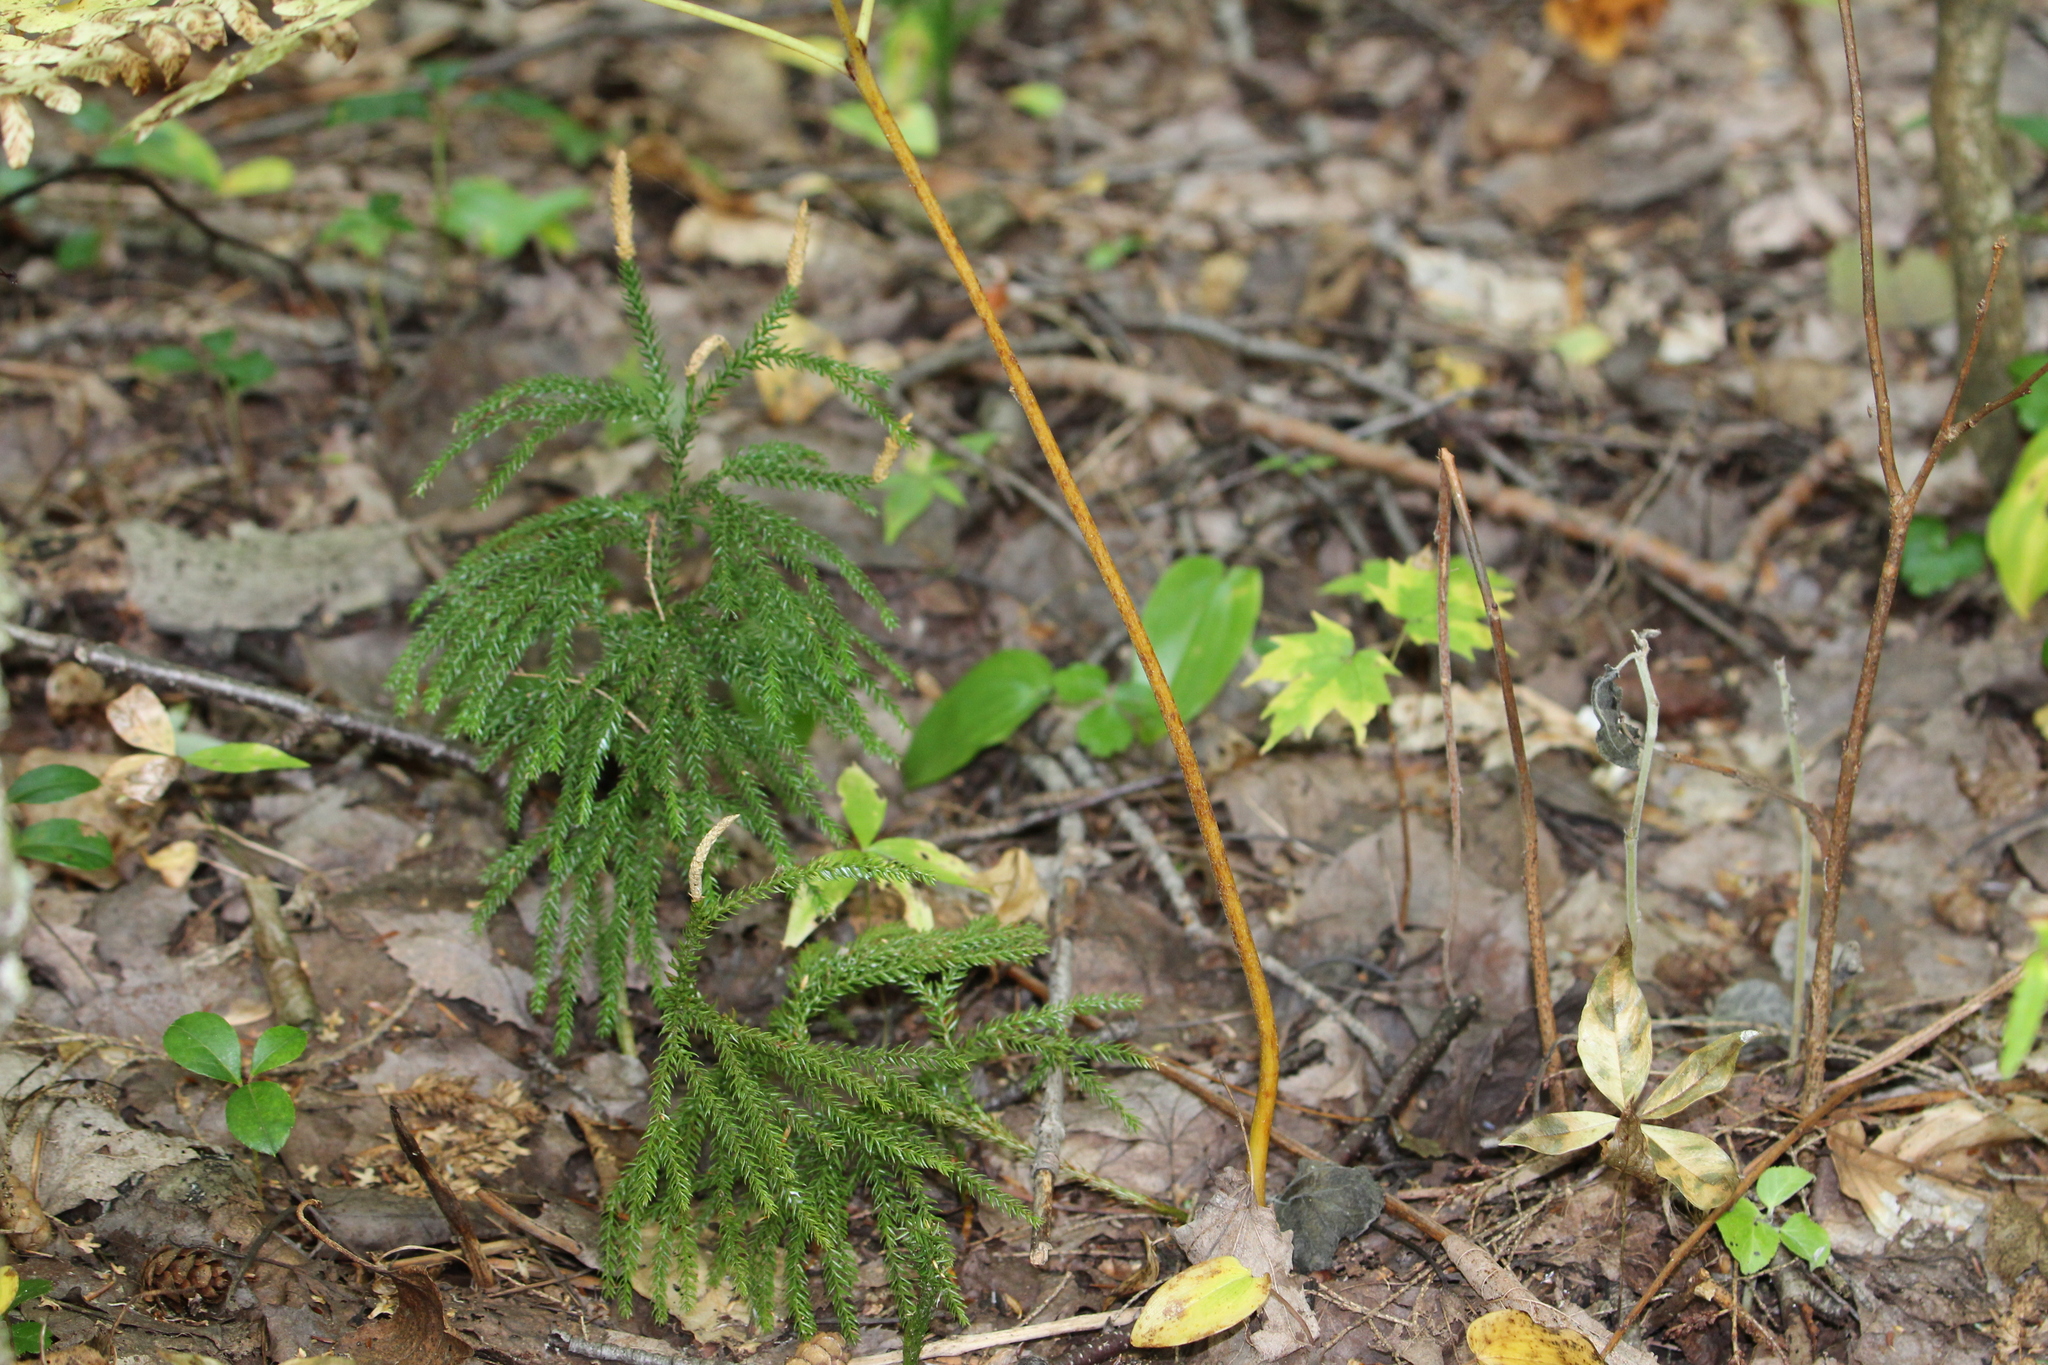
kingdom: Plantae
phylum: Tracheophyta
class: Lycopodiopsida
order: Lycopodiales
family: Lycopodiaceae
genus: Dendrolycopodium
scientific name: Dendrolycopodium dendroideum
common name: Northern tree-clubmoss
